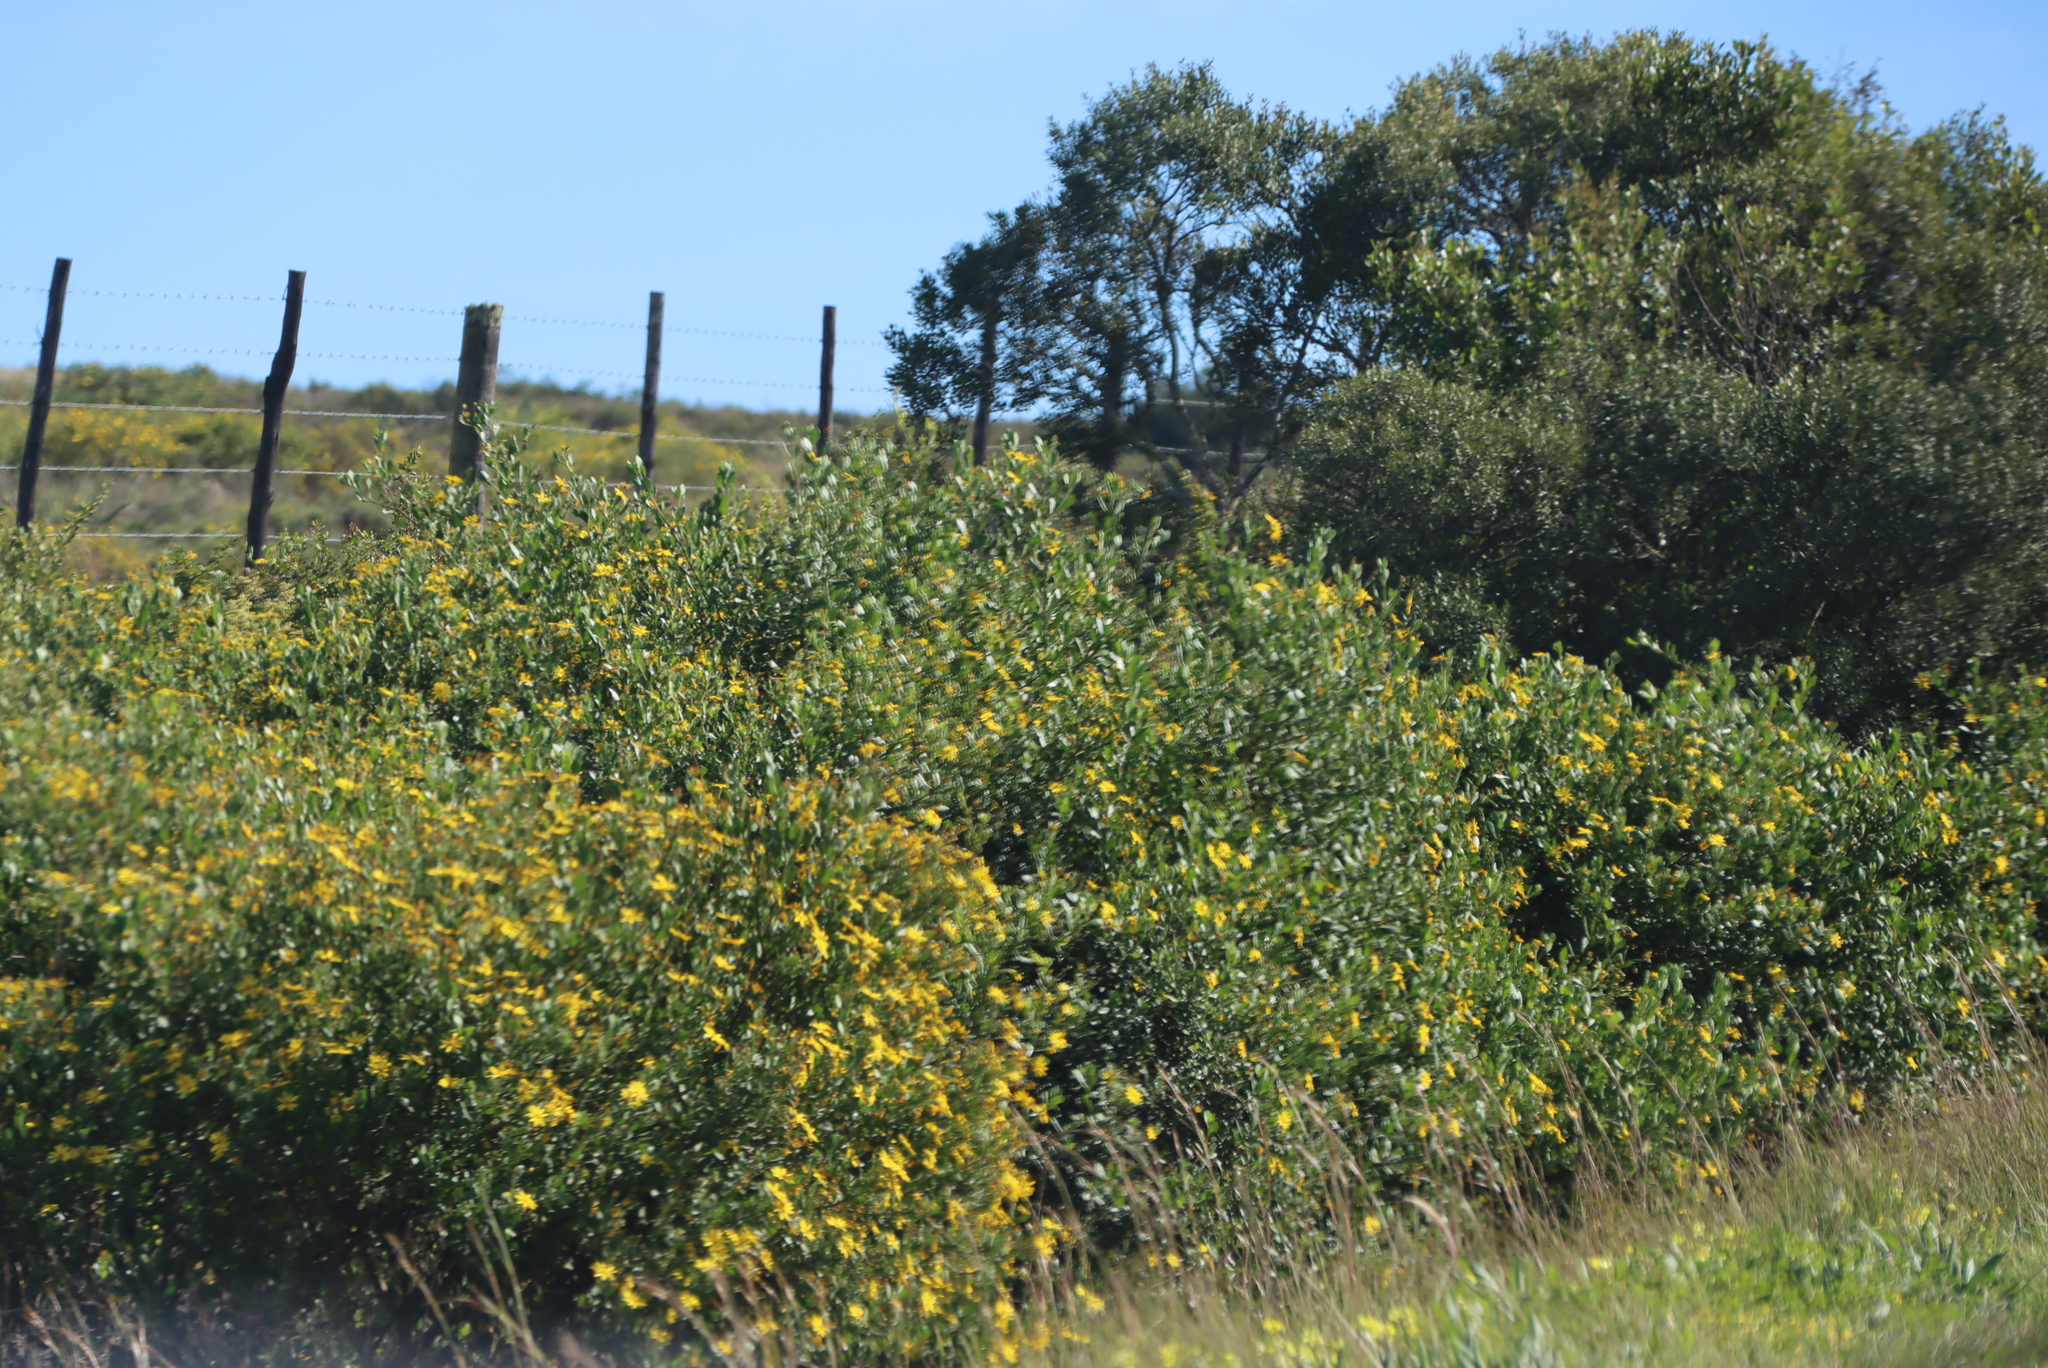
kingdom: Plantae
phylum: Tracheophyta
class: Magnoliopsida
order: Asterales
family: Asteraceae
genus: Osteospermum
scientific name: Osteospermum moniliferum
